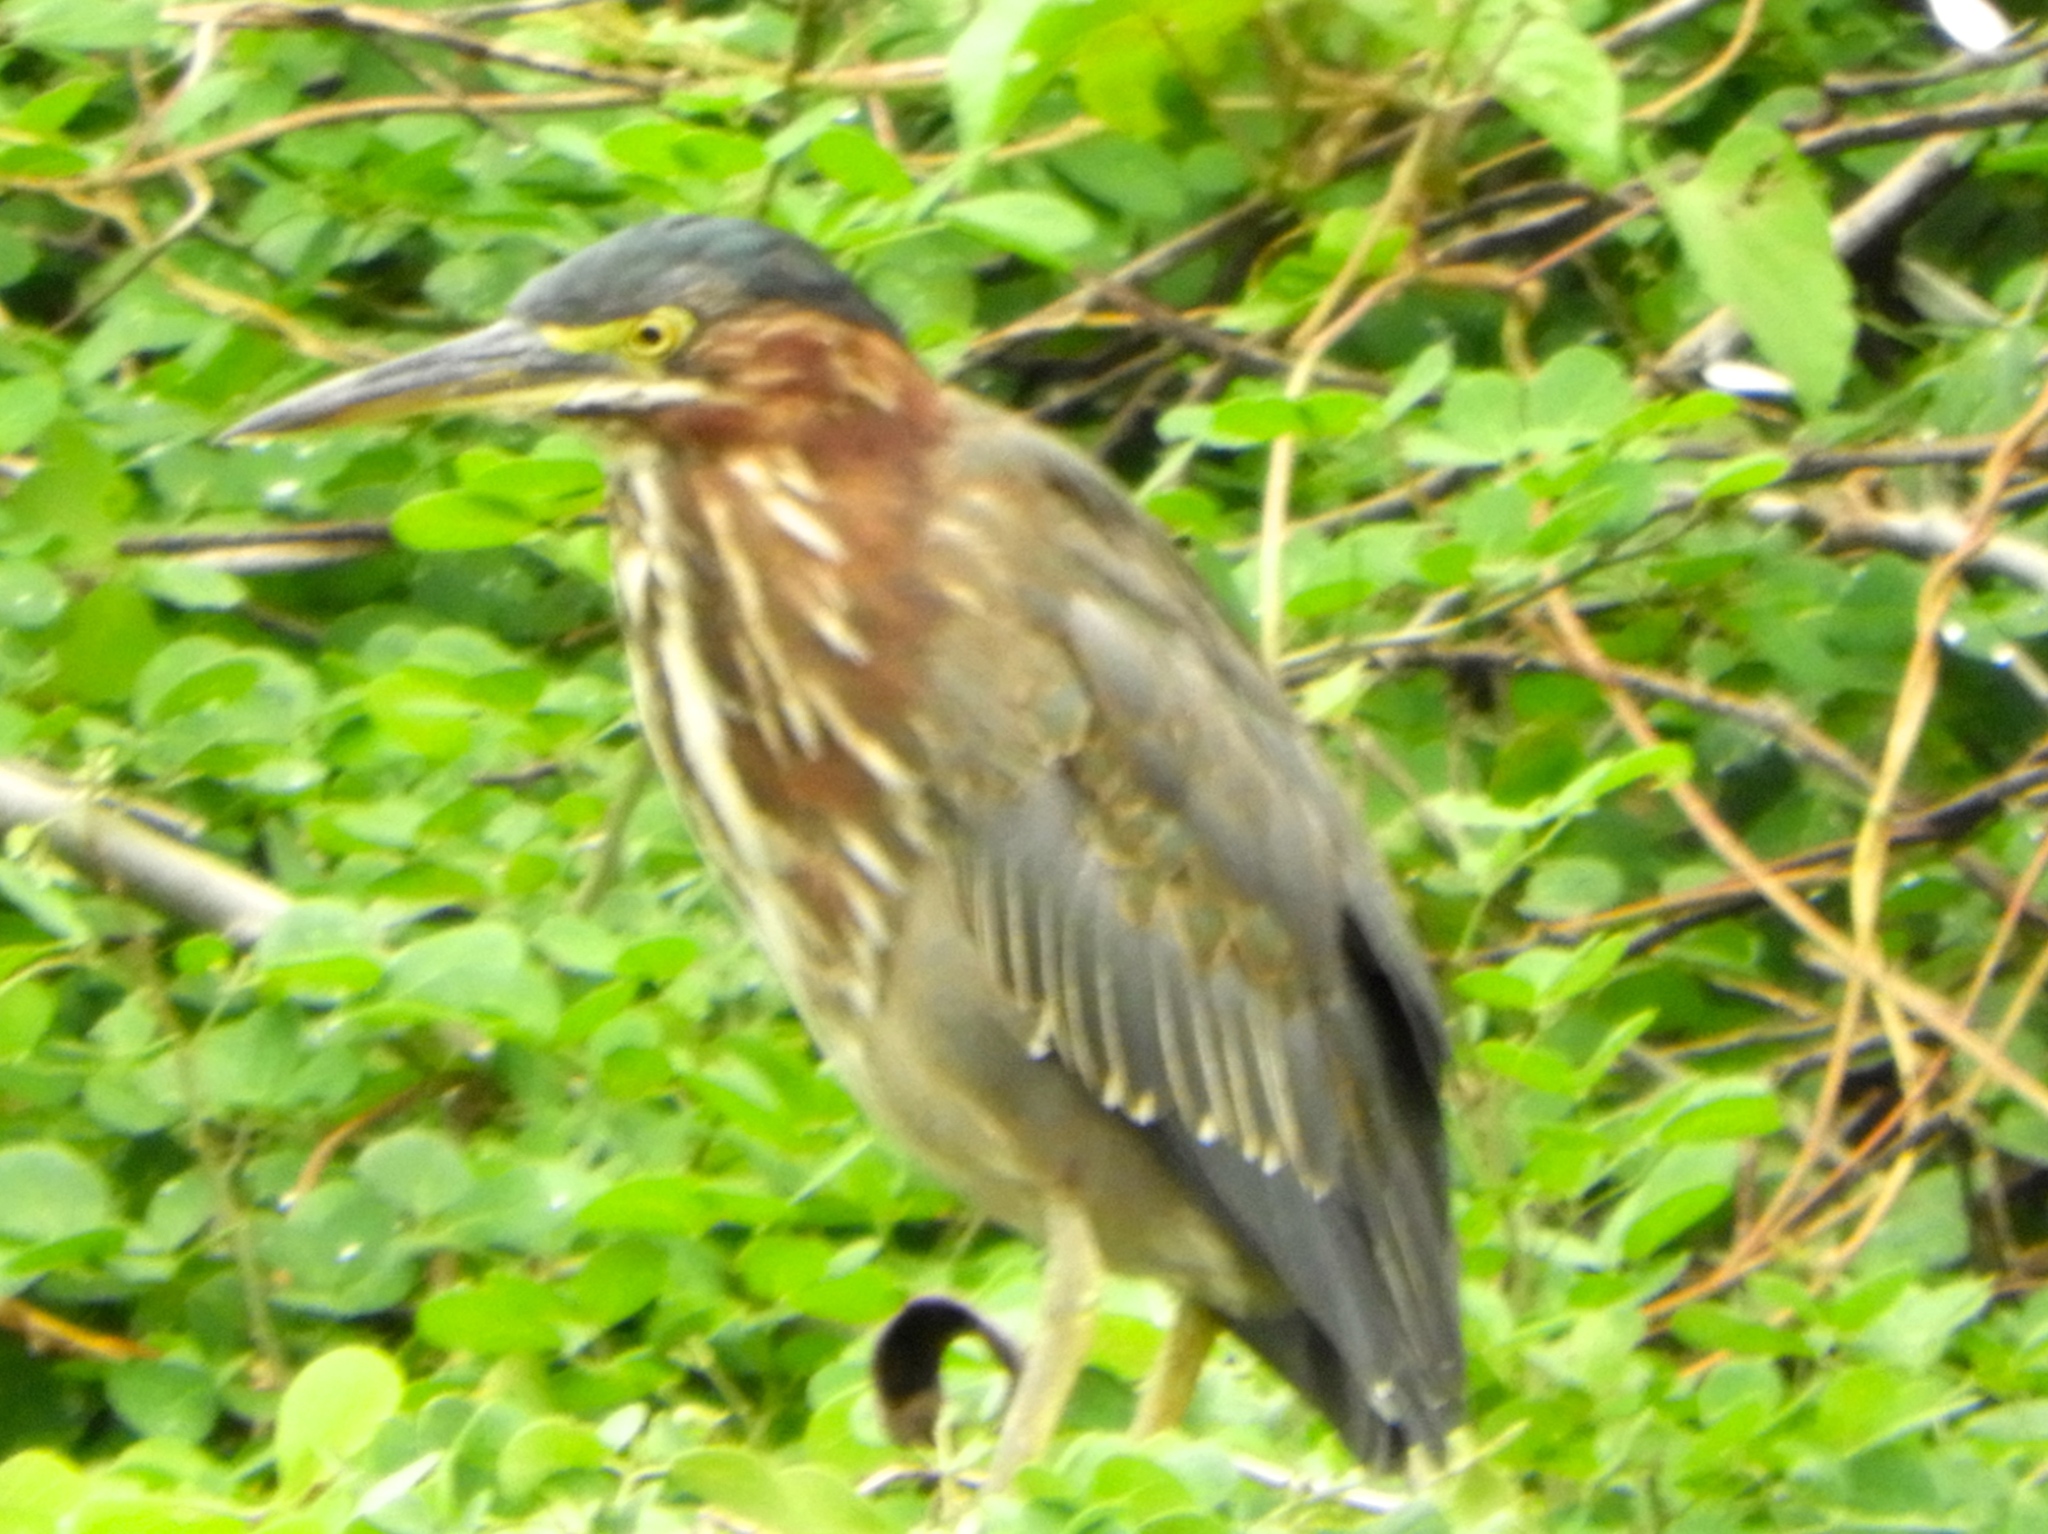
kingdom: Animalia
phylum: Chordata
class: Aves
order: Pelecaniformes
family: Ardeidae
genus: Butorides
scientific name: Butorides virescens
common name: Green heron
